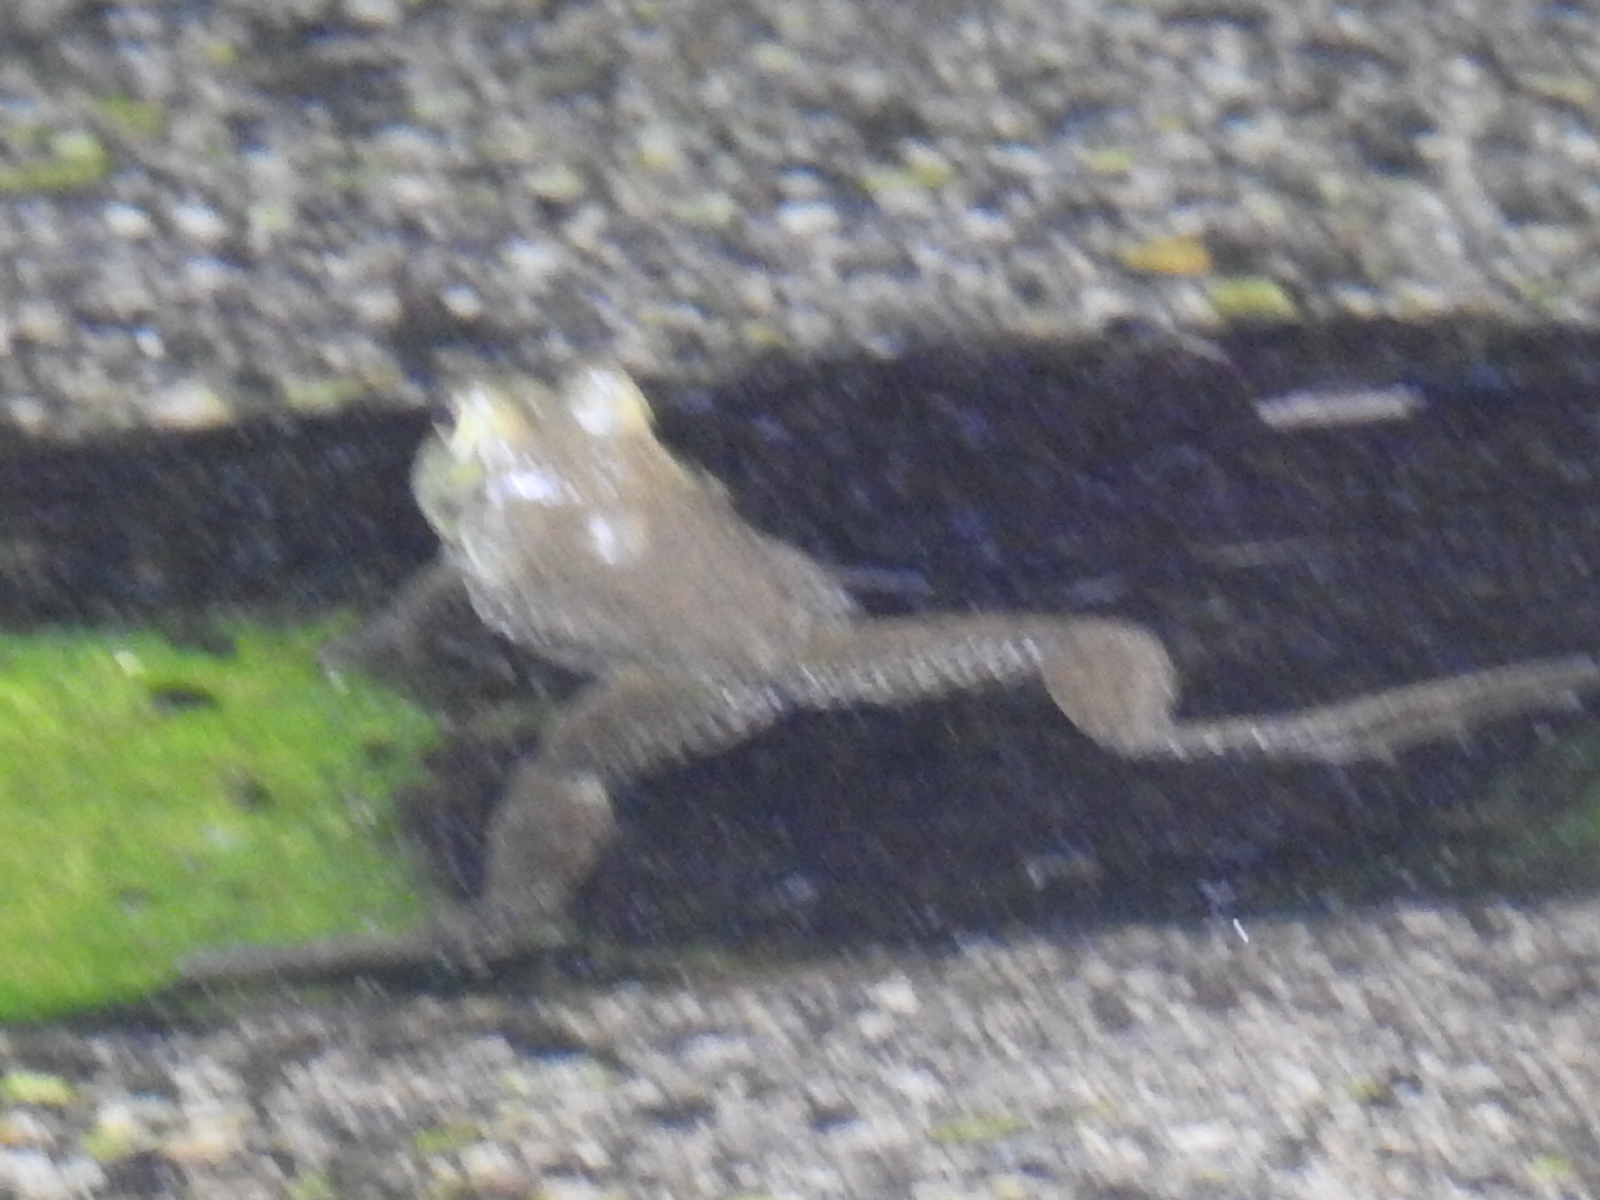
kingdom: Animalia
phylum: Chordata
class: Amphibia
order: Anura
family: Ranidae
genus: Lithobates
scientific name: Lithobates catesbeianus
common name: American bullfrog
